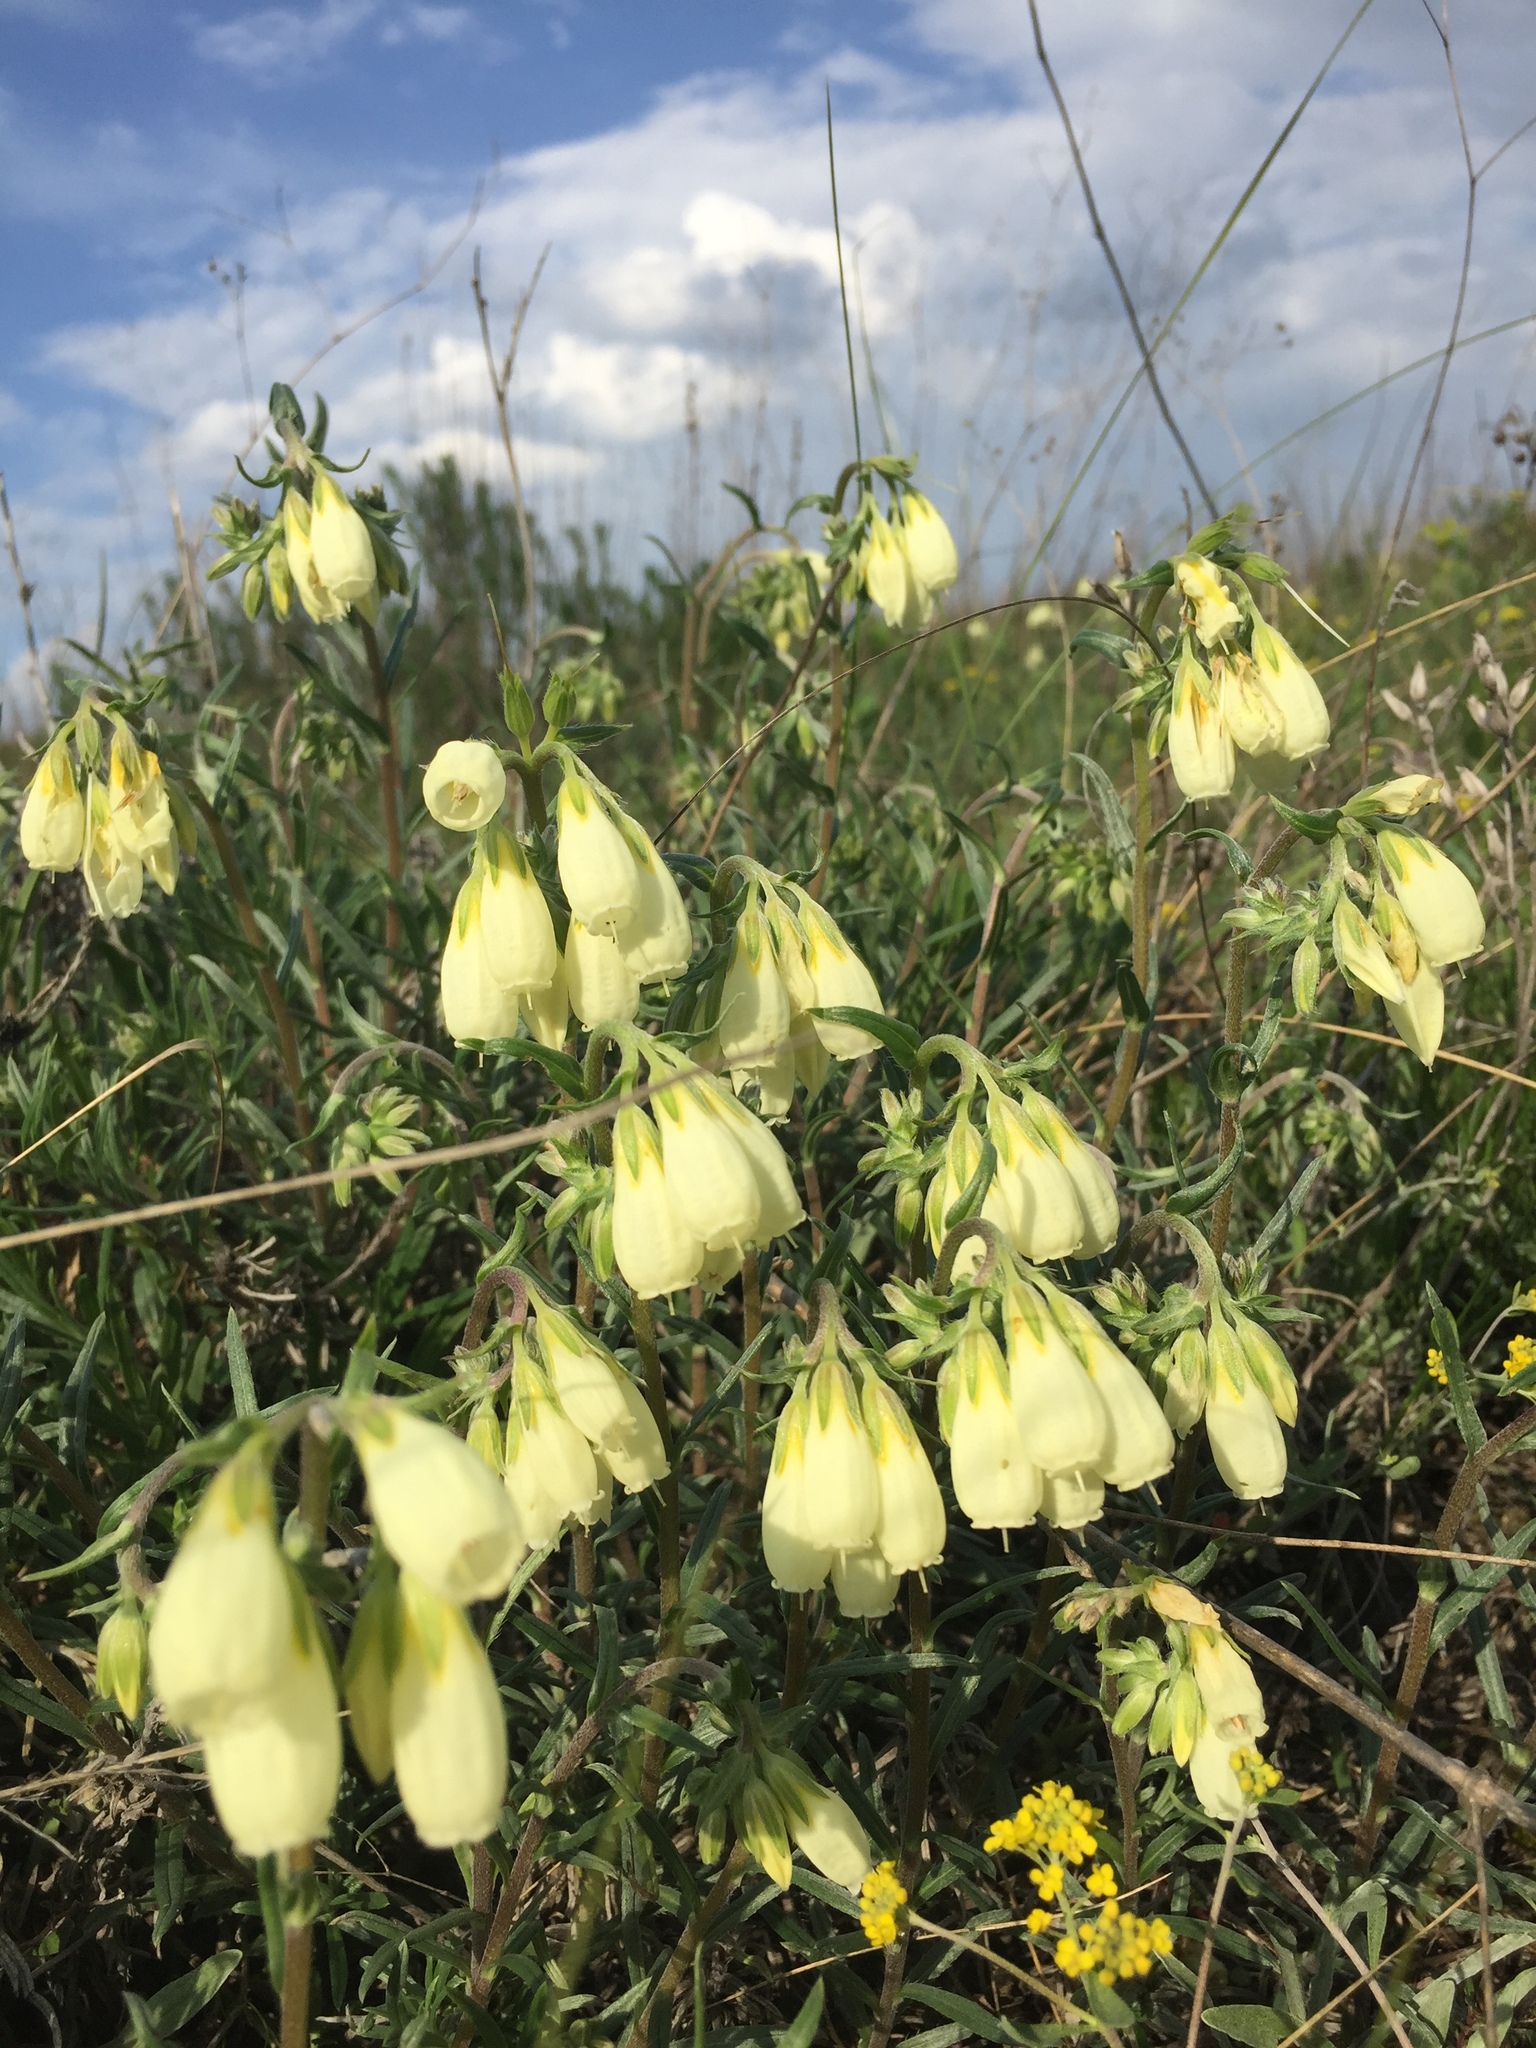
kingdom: Plantae
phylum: Tracheophyta
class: Magnoliopsida
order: Boraginales
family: Boraginaceae
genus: Onosma
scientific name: Onosma simplicissima
